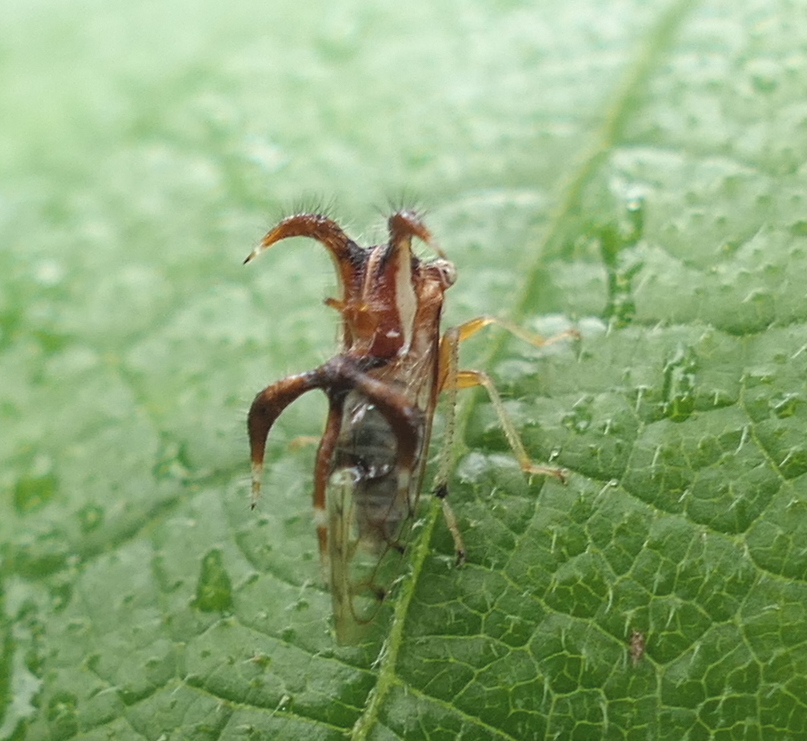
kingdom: Animalia
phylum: Arthropoda
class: Insecta
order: Hemiptera
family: Membracidae
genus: Cyphonia
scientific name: Cyphonia nordestina
